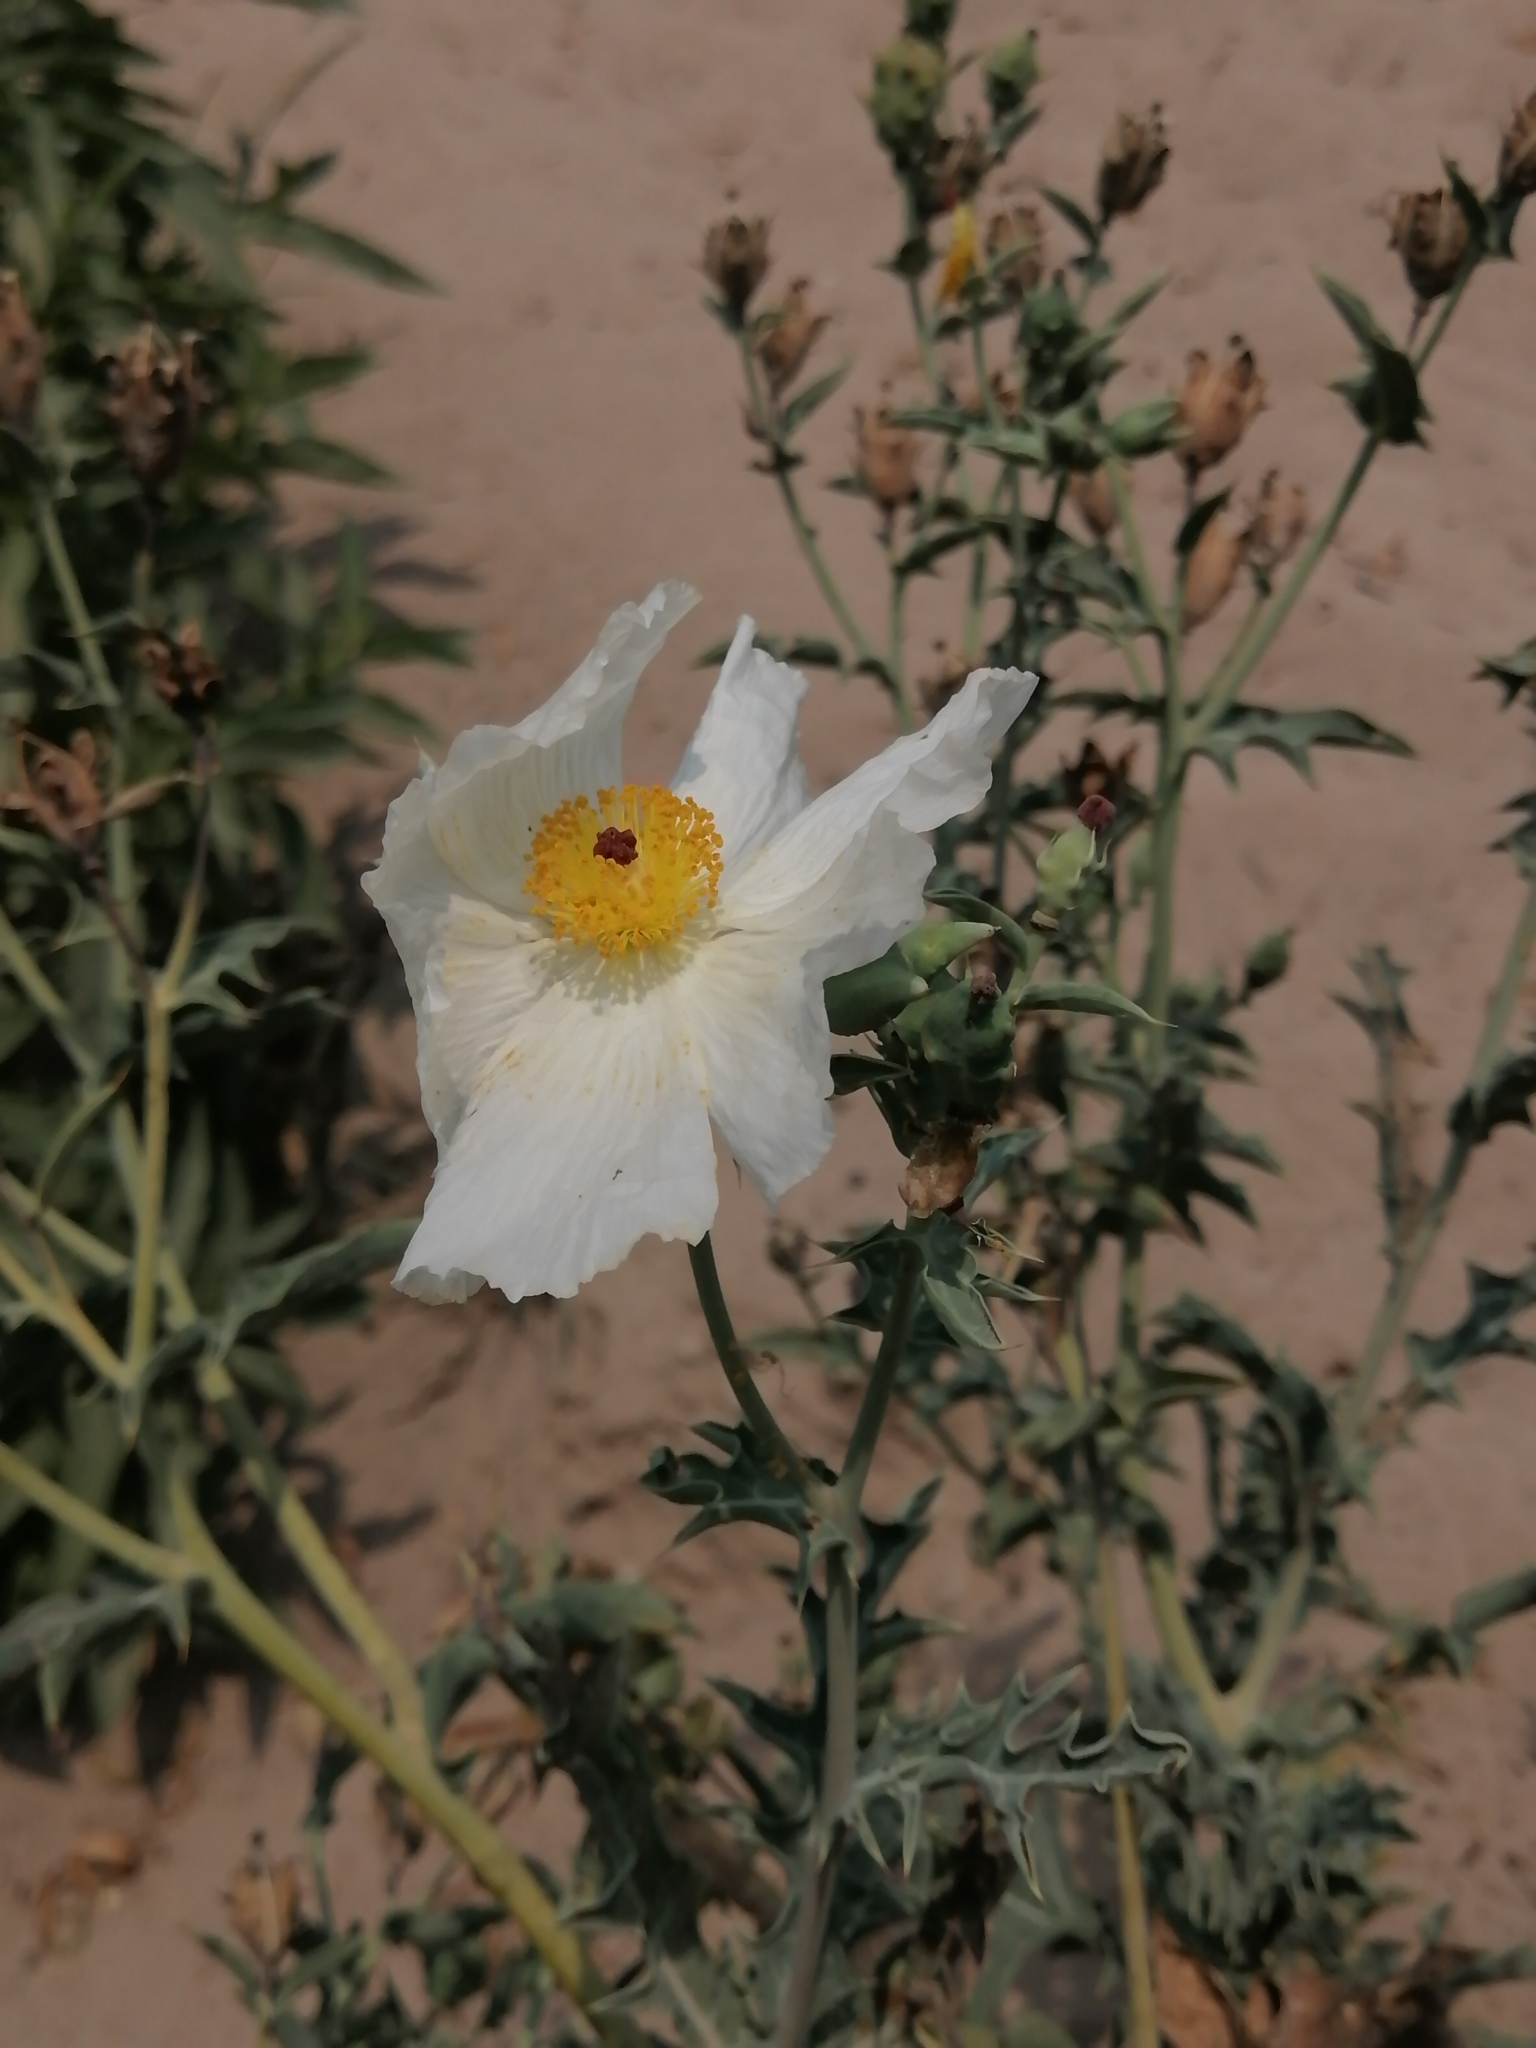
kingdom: Plantae
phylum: Tracheophyta
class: Magnoliopsida
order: Ranunculales
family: Papaveraceae
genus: Argemone
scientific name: Argemone grandiflora
